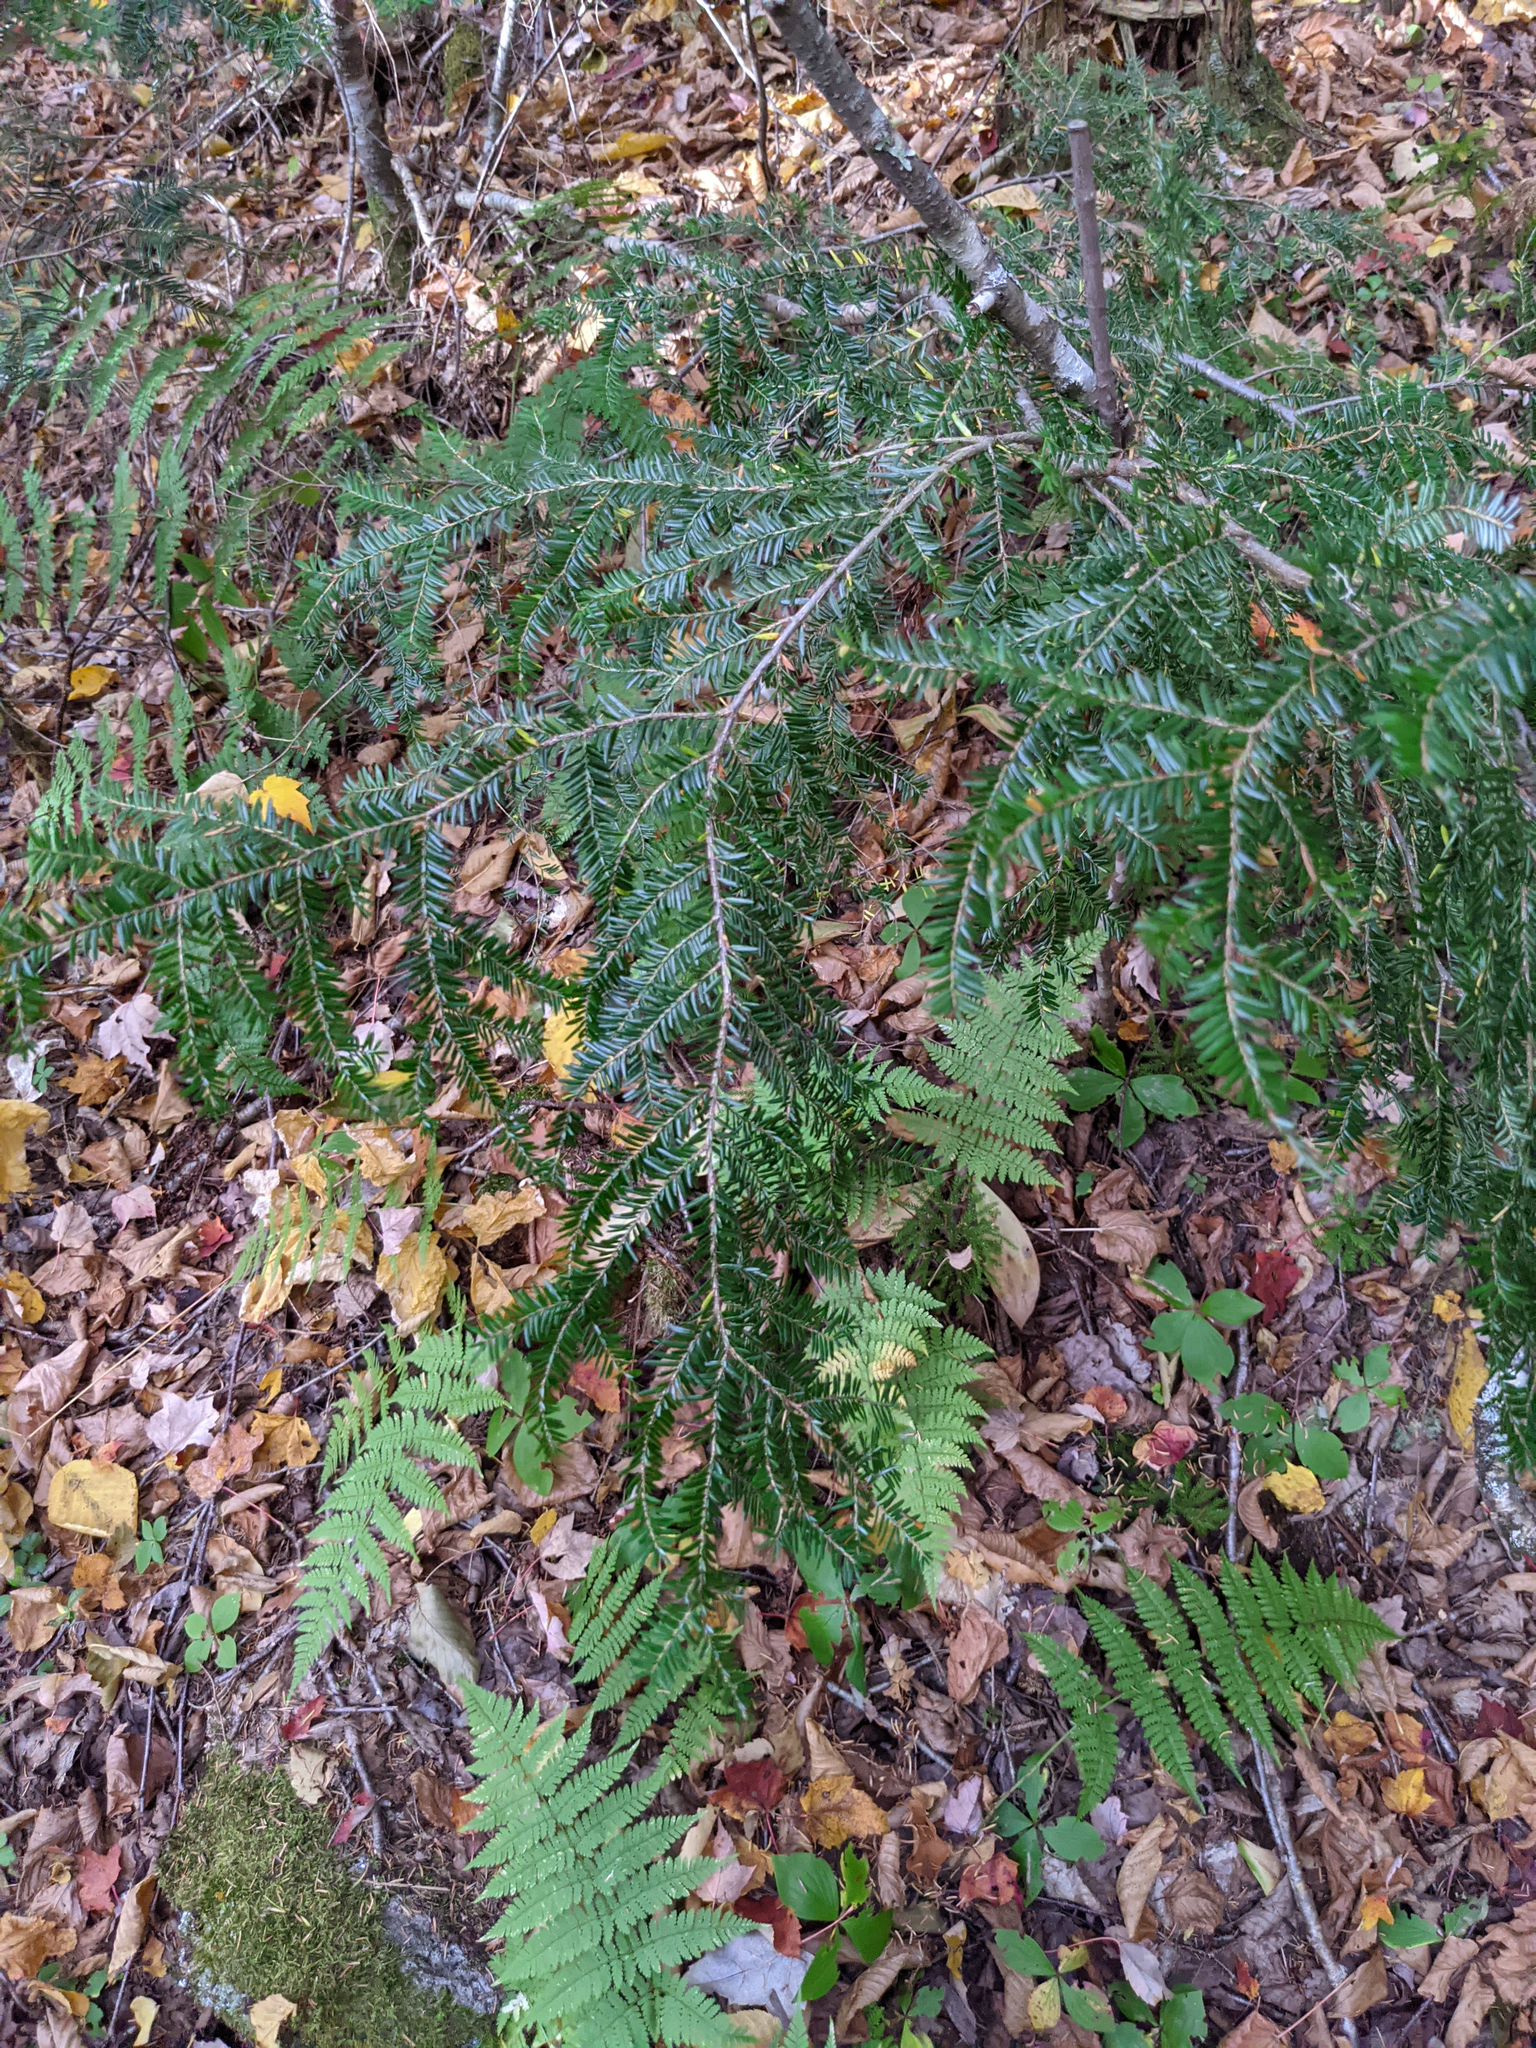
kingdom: Plantae
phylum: Tracheophyta
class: Pinopsida
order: Pinales
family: Pinaceae
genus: Tsuga
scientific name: Tsuga canadensis
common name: Eastern hemlock
